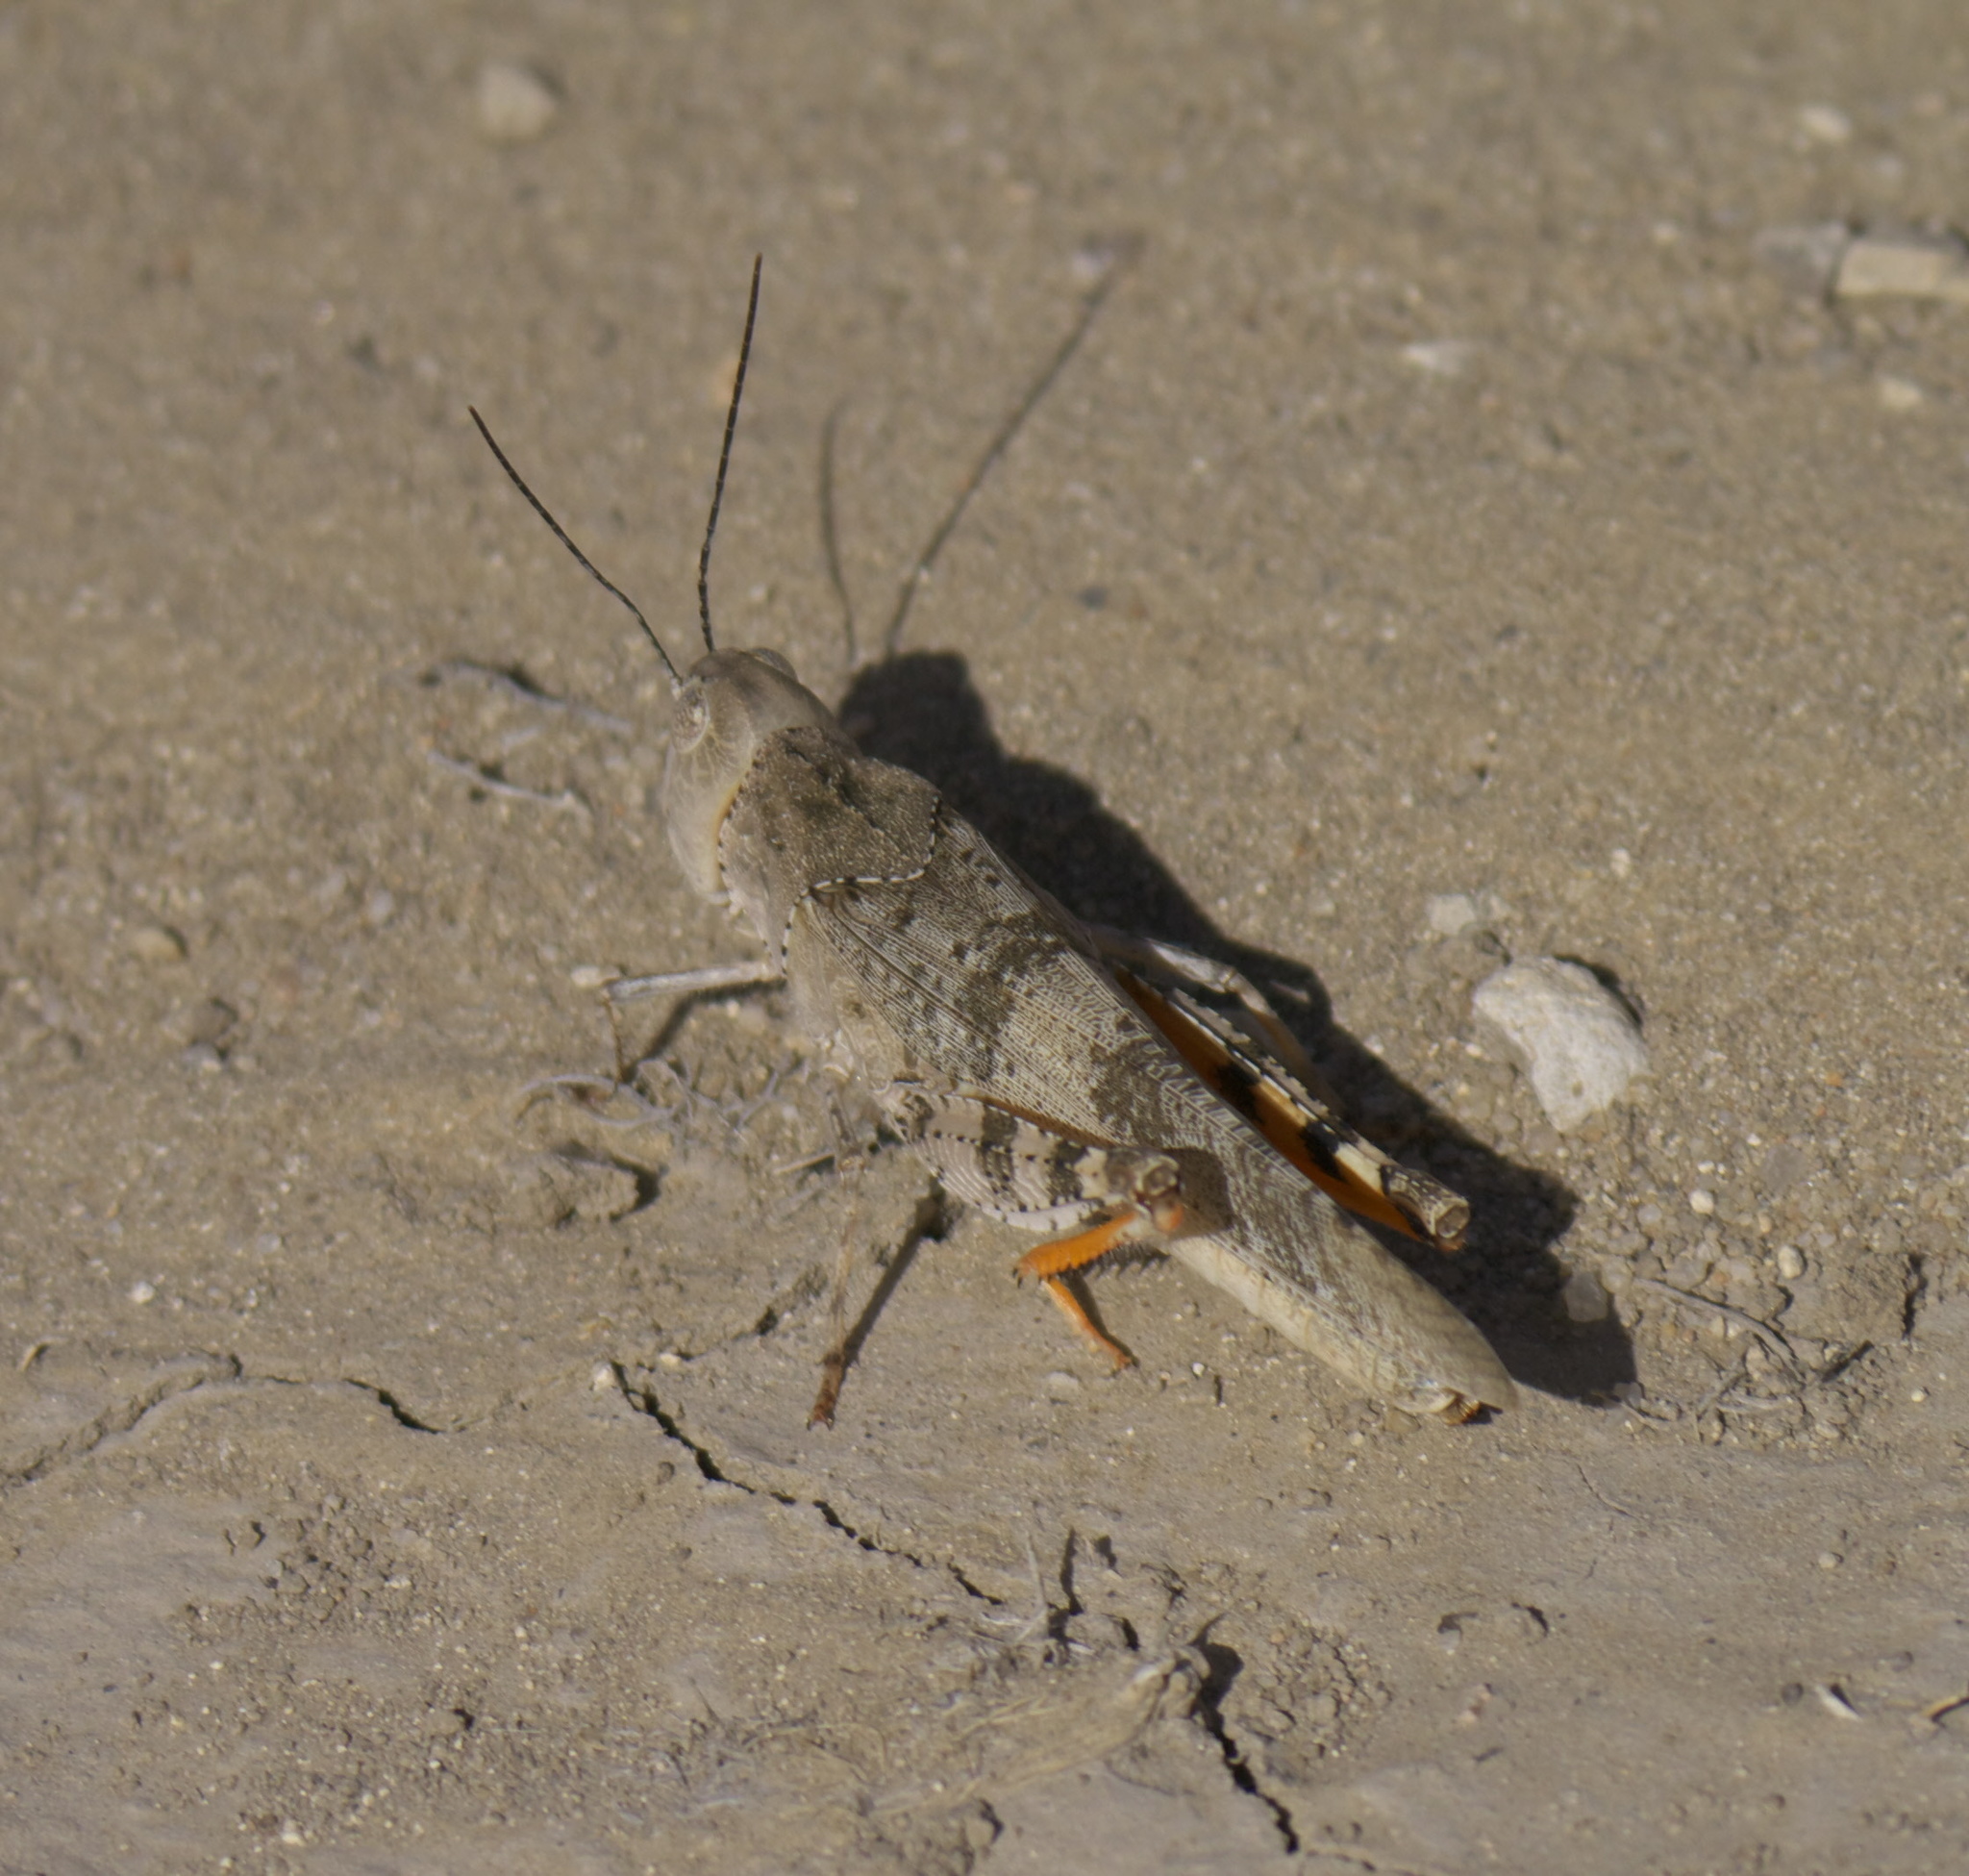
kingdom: Animalia
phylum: Arthropoda
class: Insecta
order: Orthoptera
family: Acrididae
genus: Trimerotropis
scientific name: Trimerotropis latifasciata
